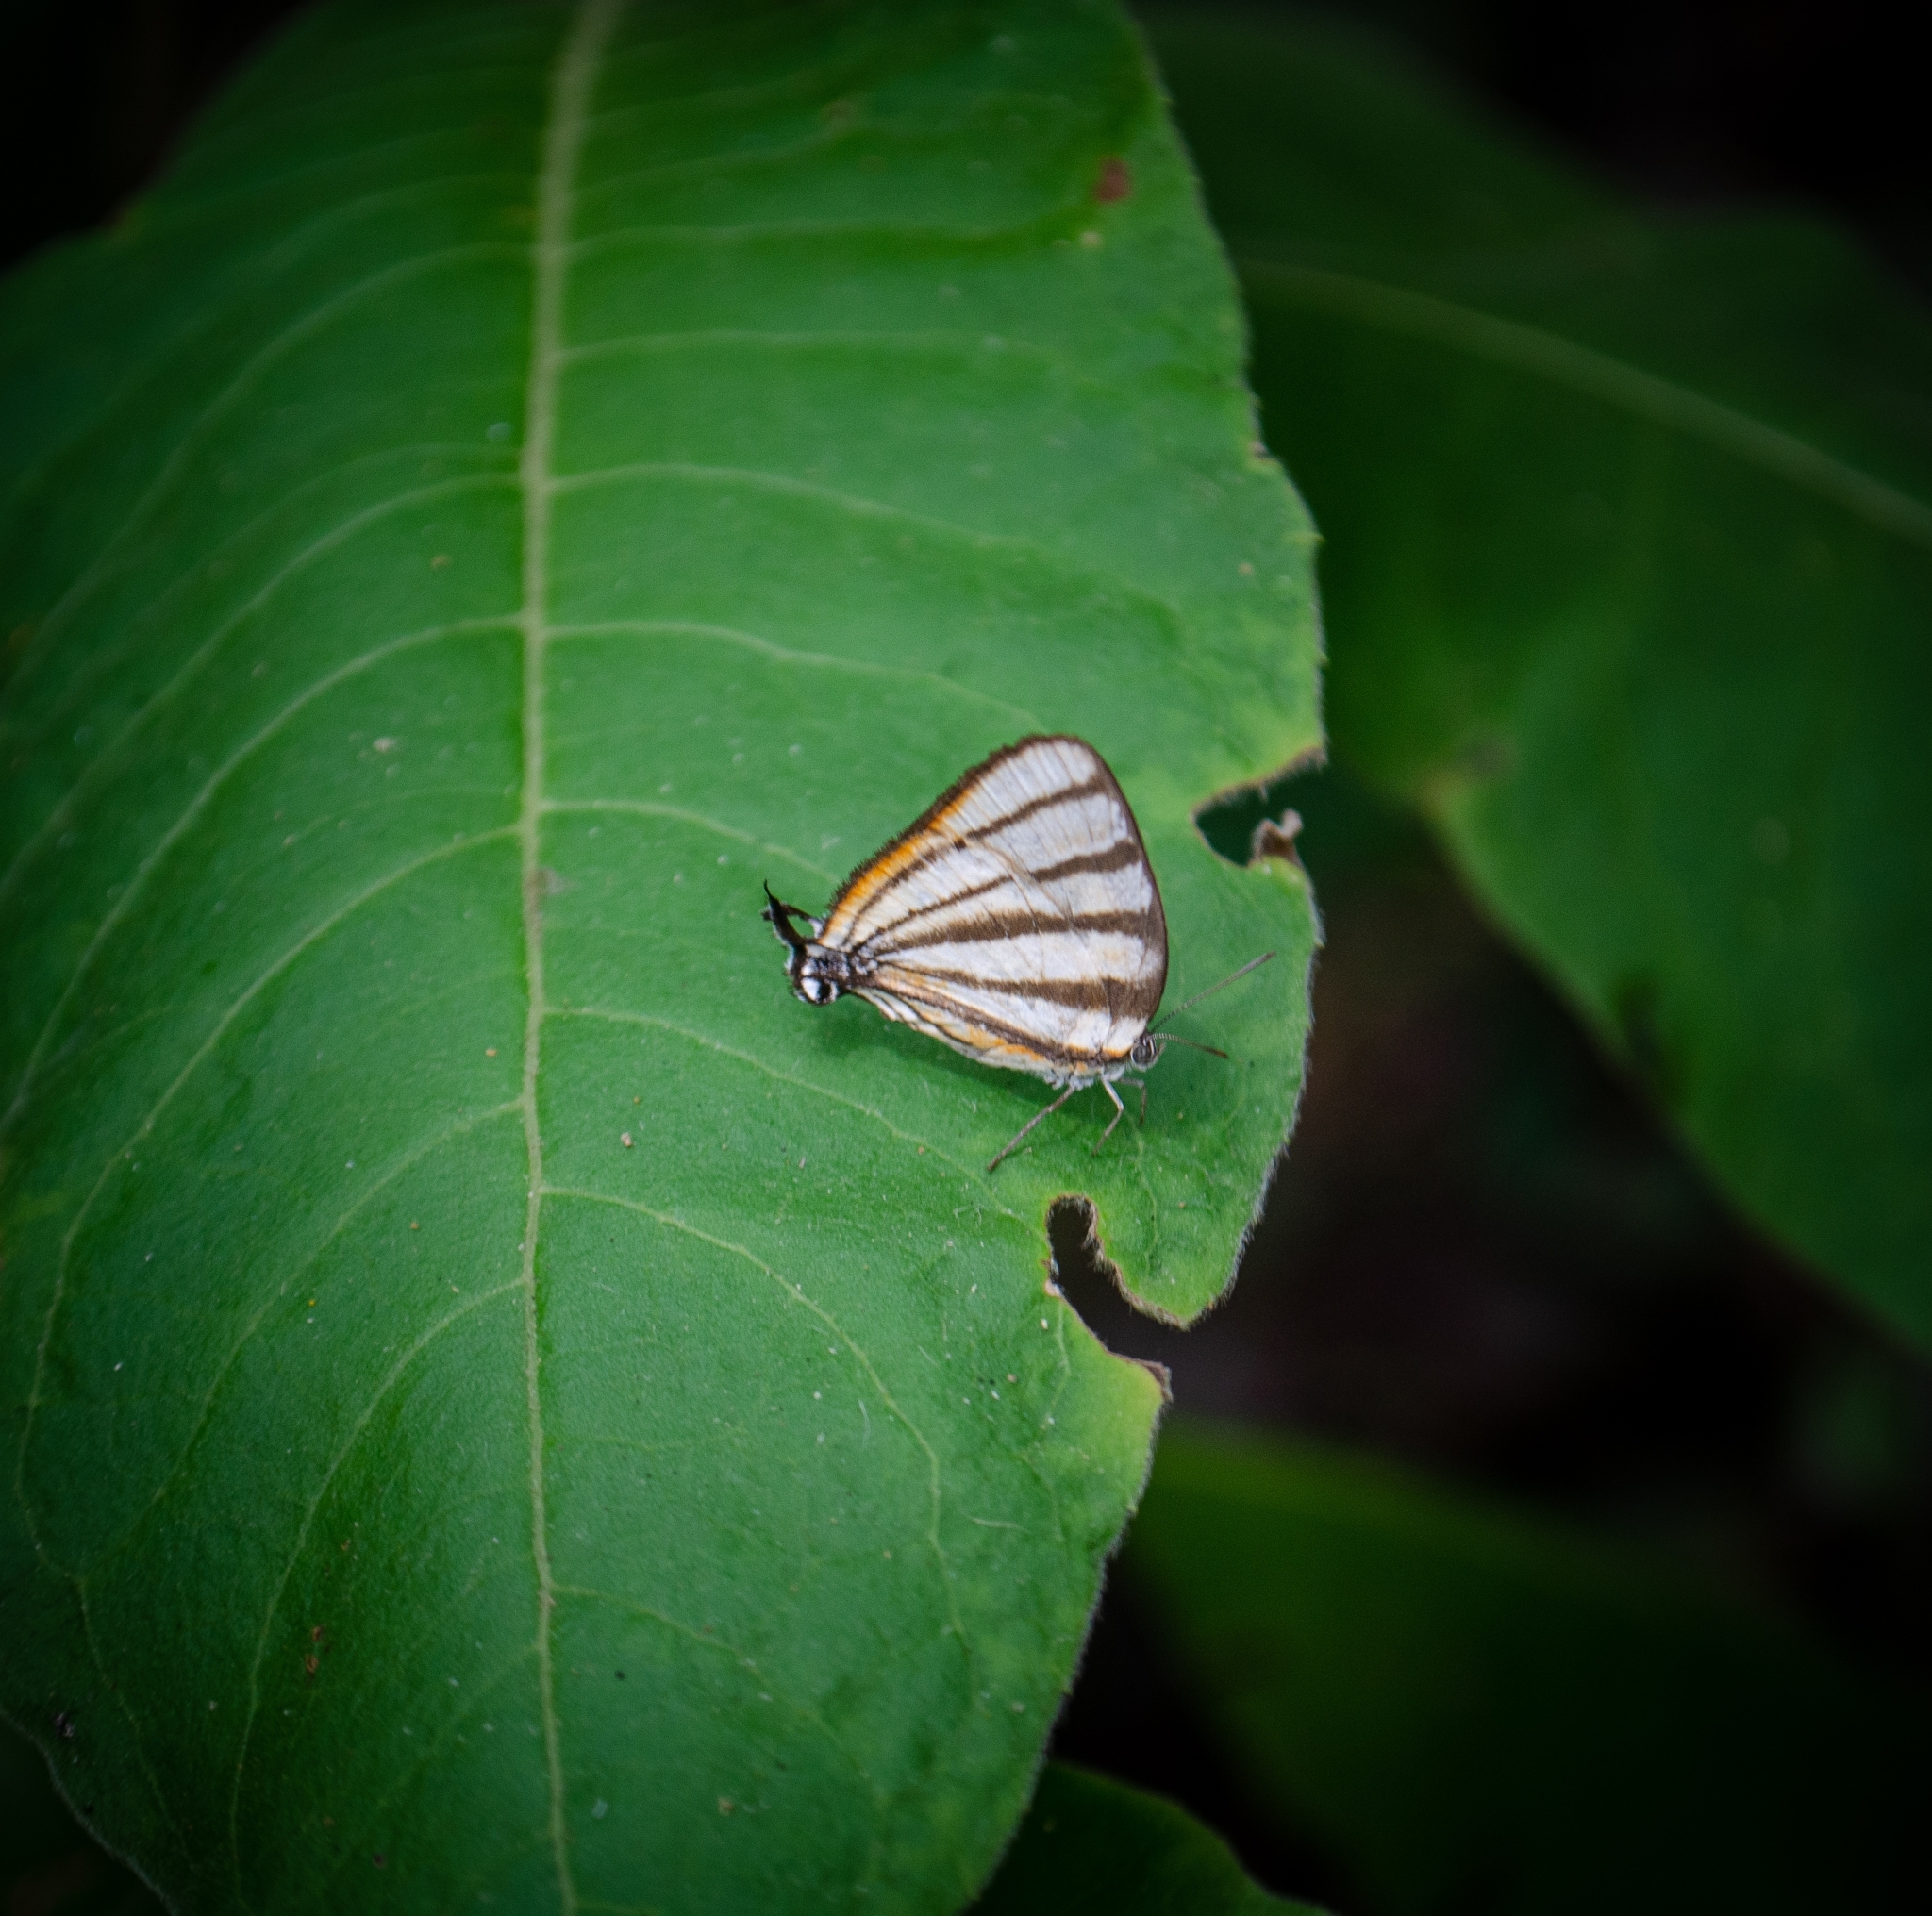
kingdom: Animalia
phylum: Arthropoda
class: Insecta
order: Lepidoptera
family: Lycaenidae
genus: Arawacus
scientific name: Arawacus separata
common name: Separated stripestreak
